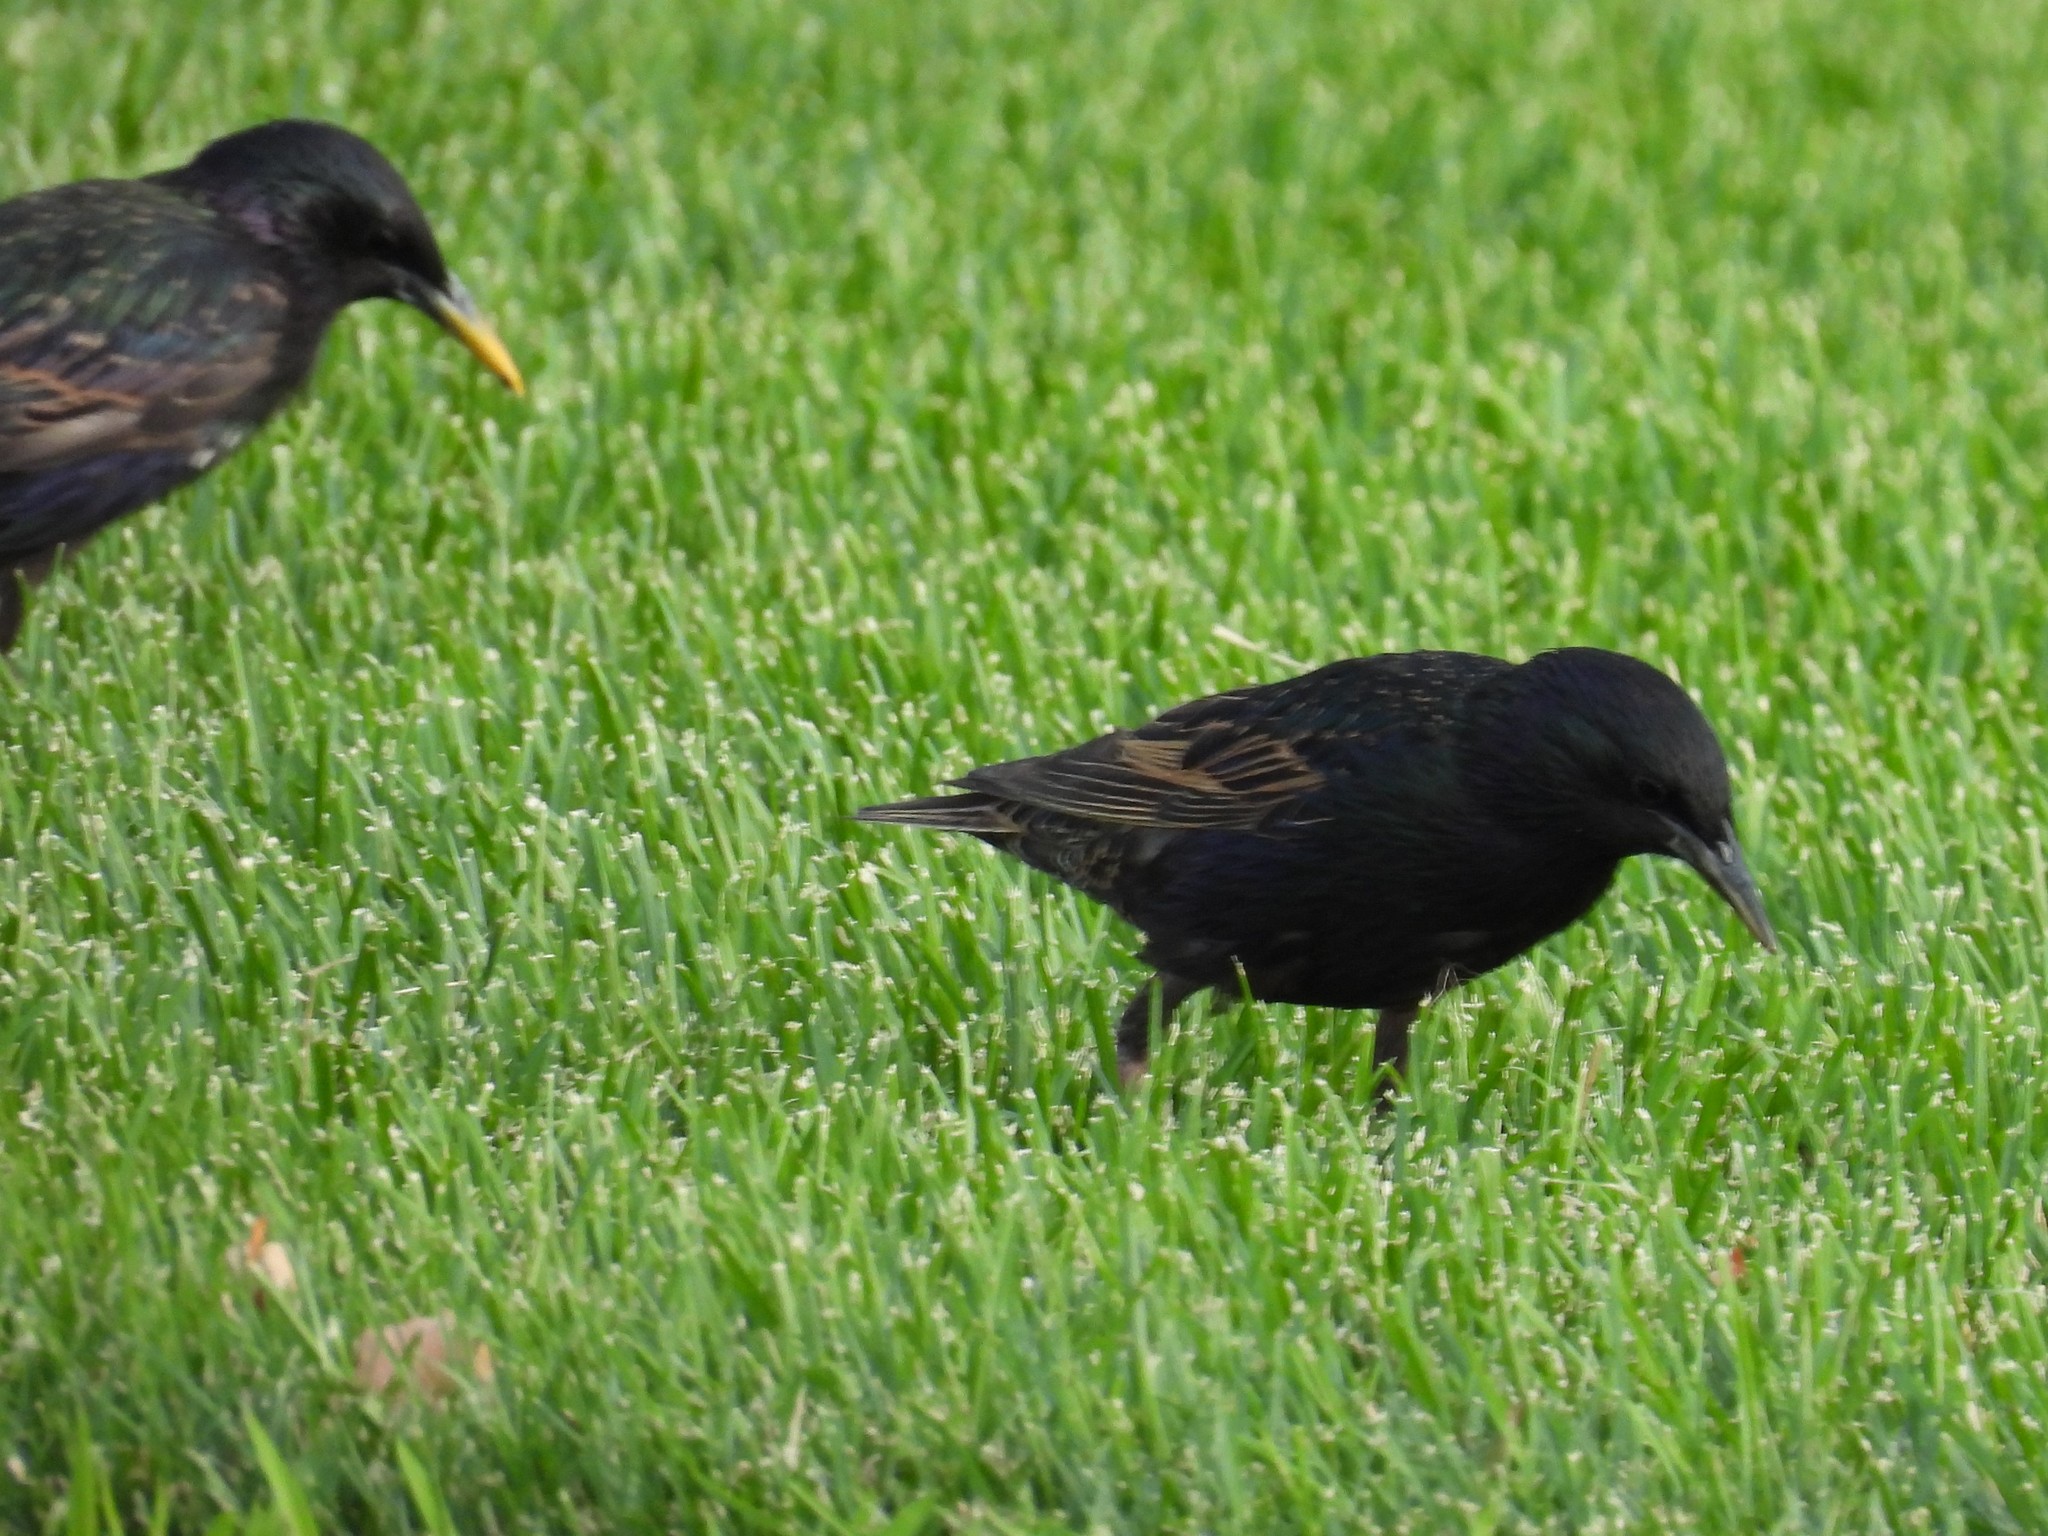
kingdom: Animalia
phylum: Chordata
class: Aves
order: Passeriformes
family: Sturnidae
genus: Sturnus
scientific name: Sturnus vulgaris
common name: Common starling
